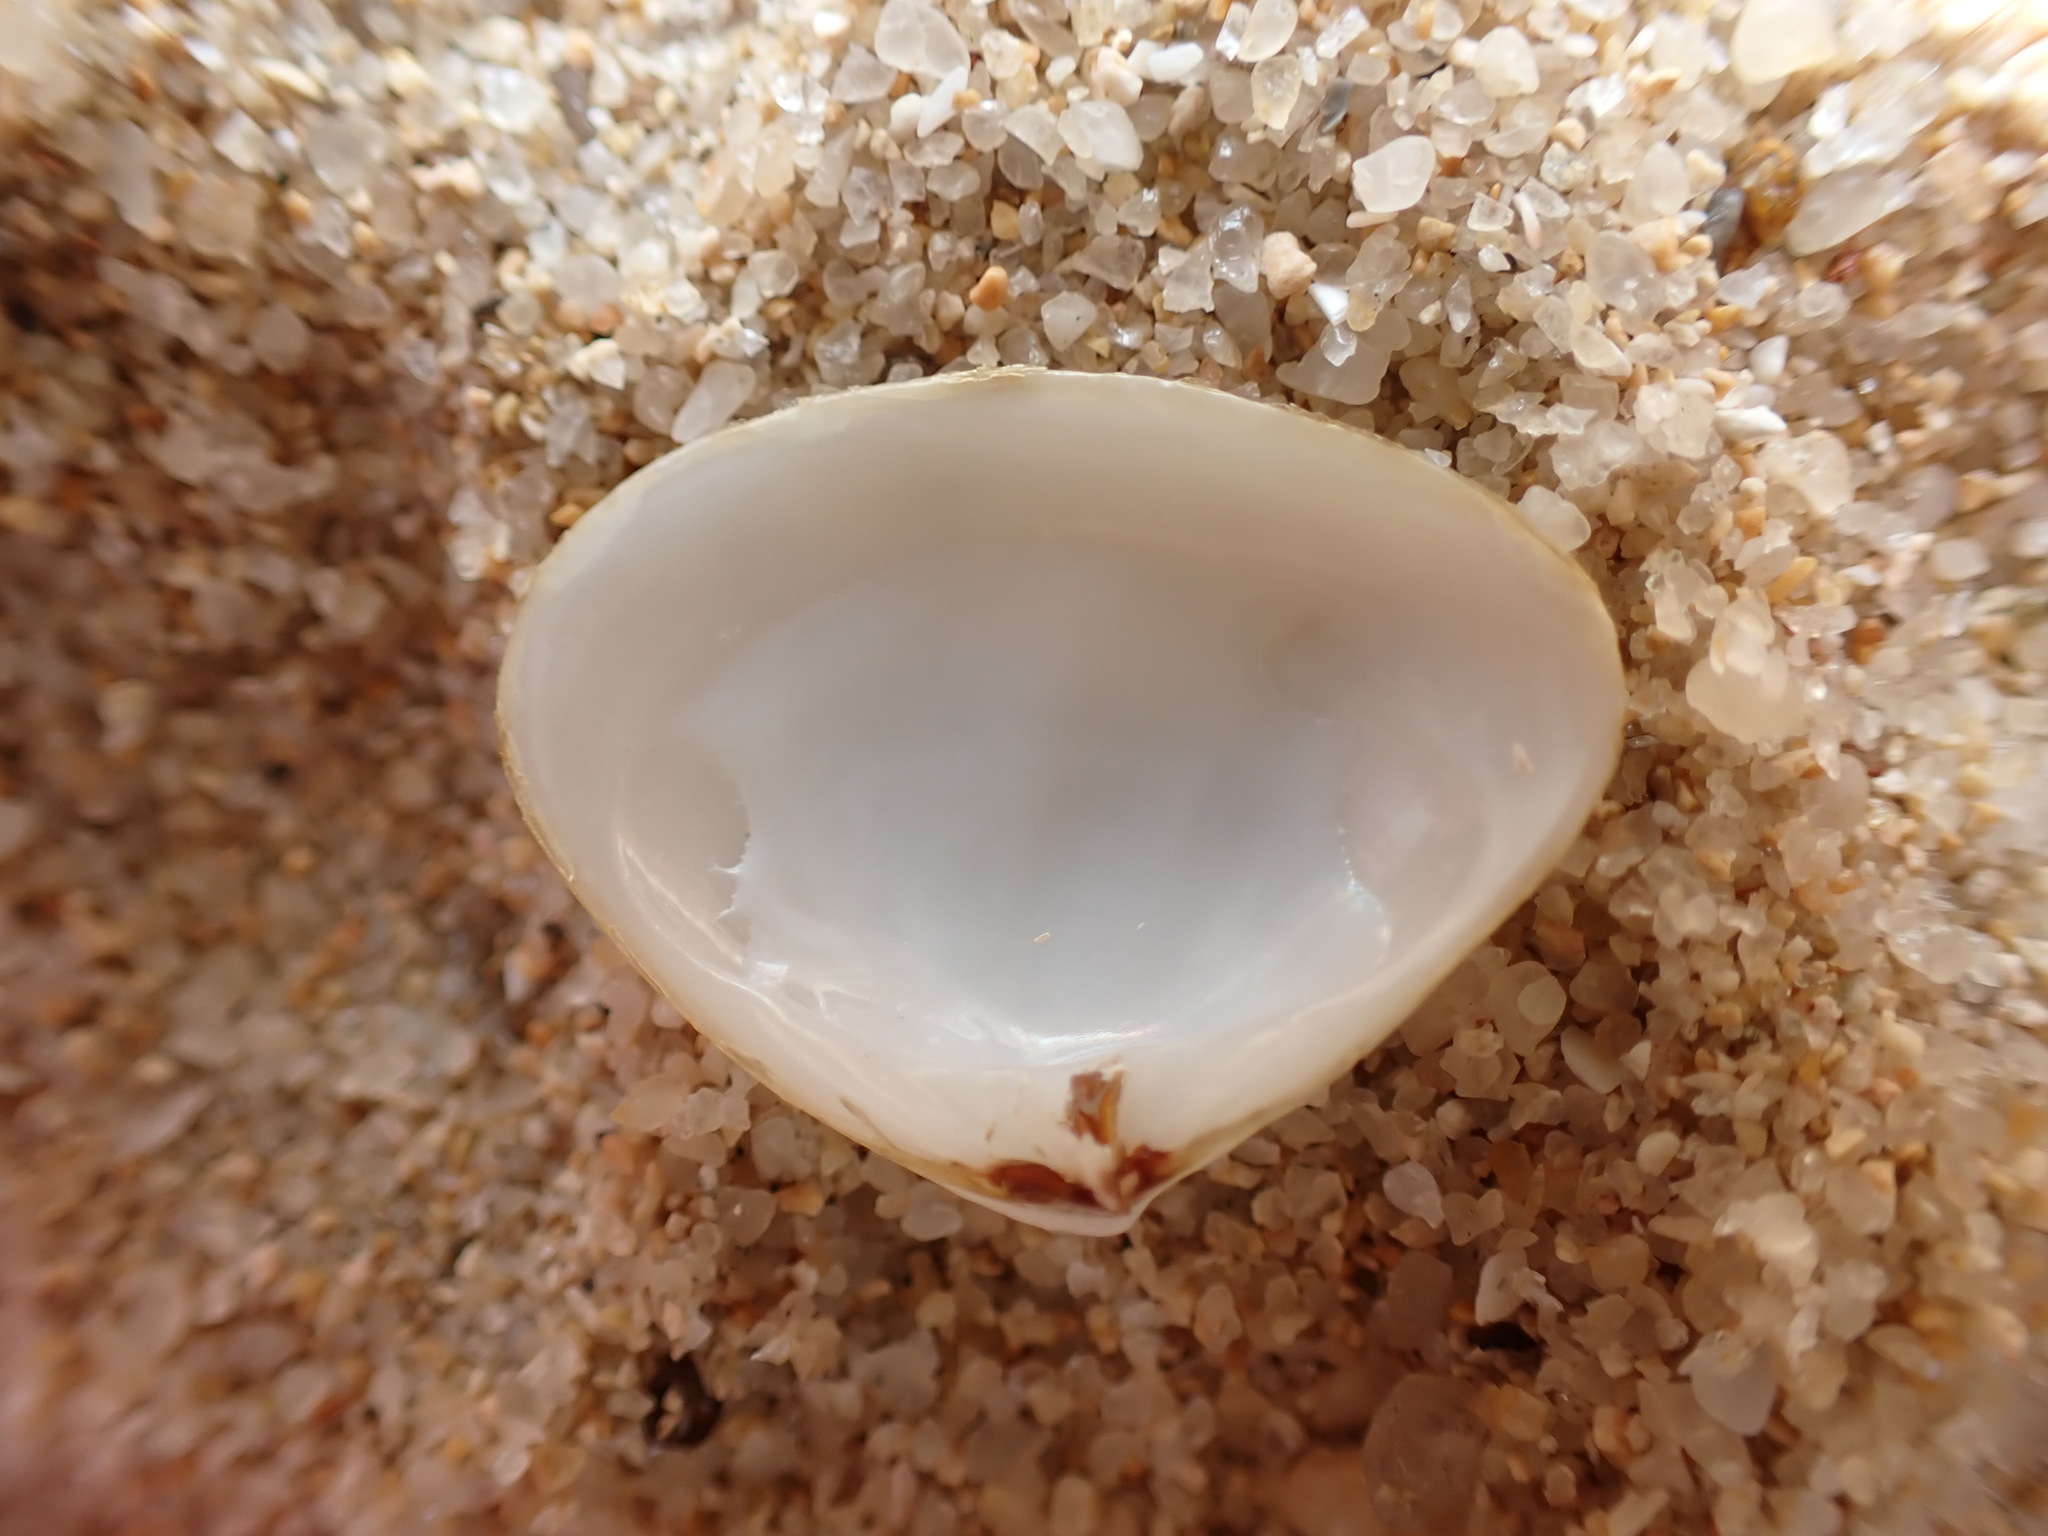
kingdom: Animalia
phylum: Mollusca
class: Bivalvia
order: Venerida
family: Mesodesmatidae
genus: Atactodea
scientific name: Atactodea striata
